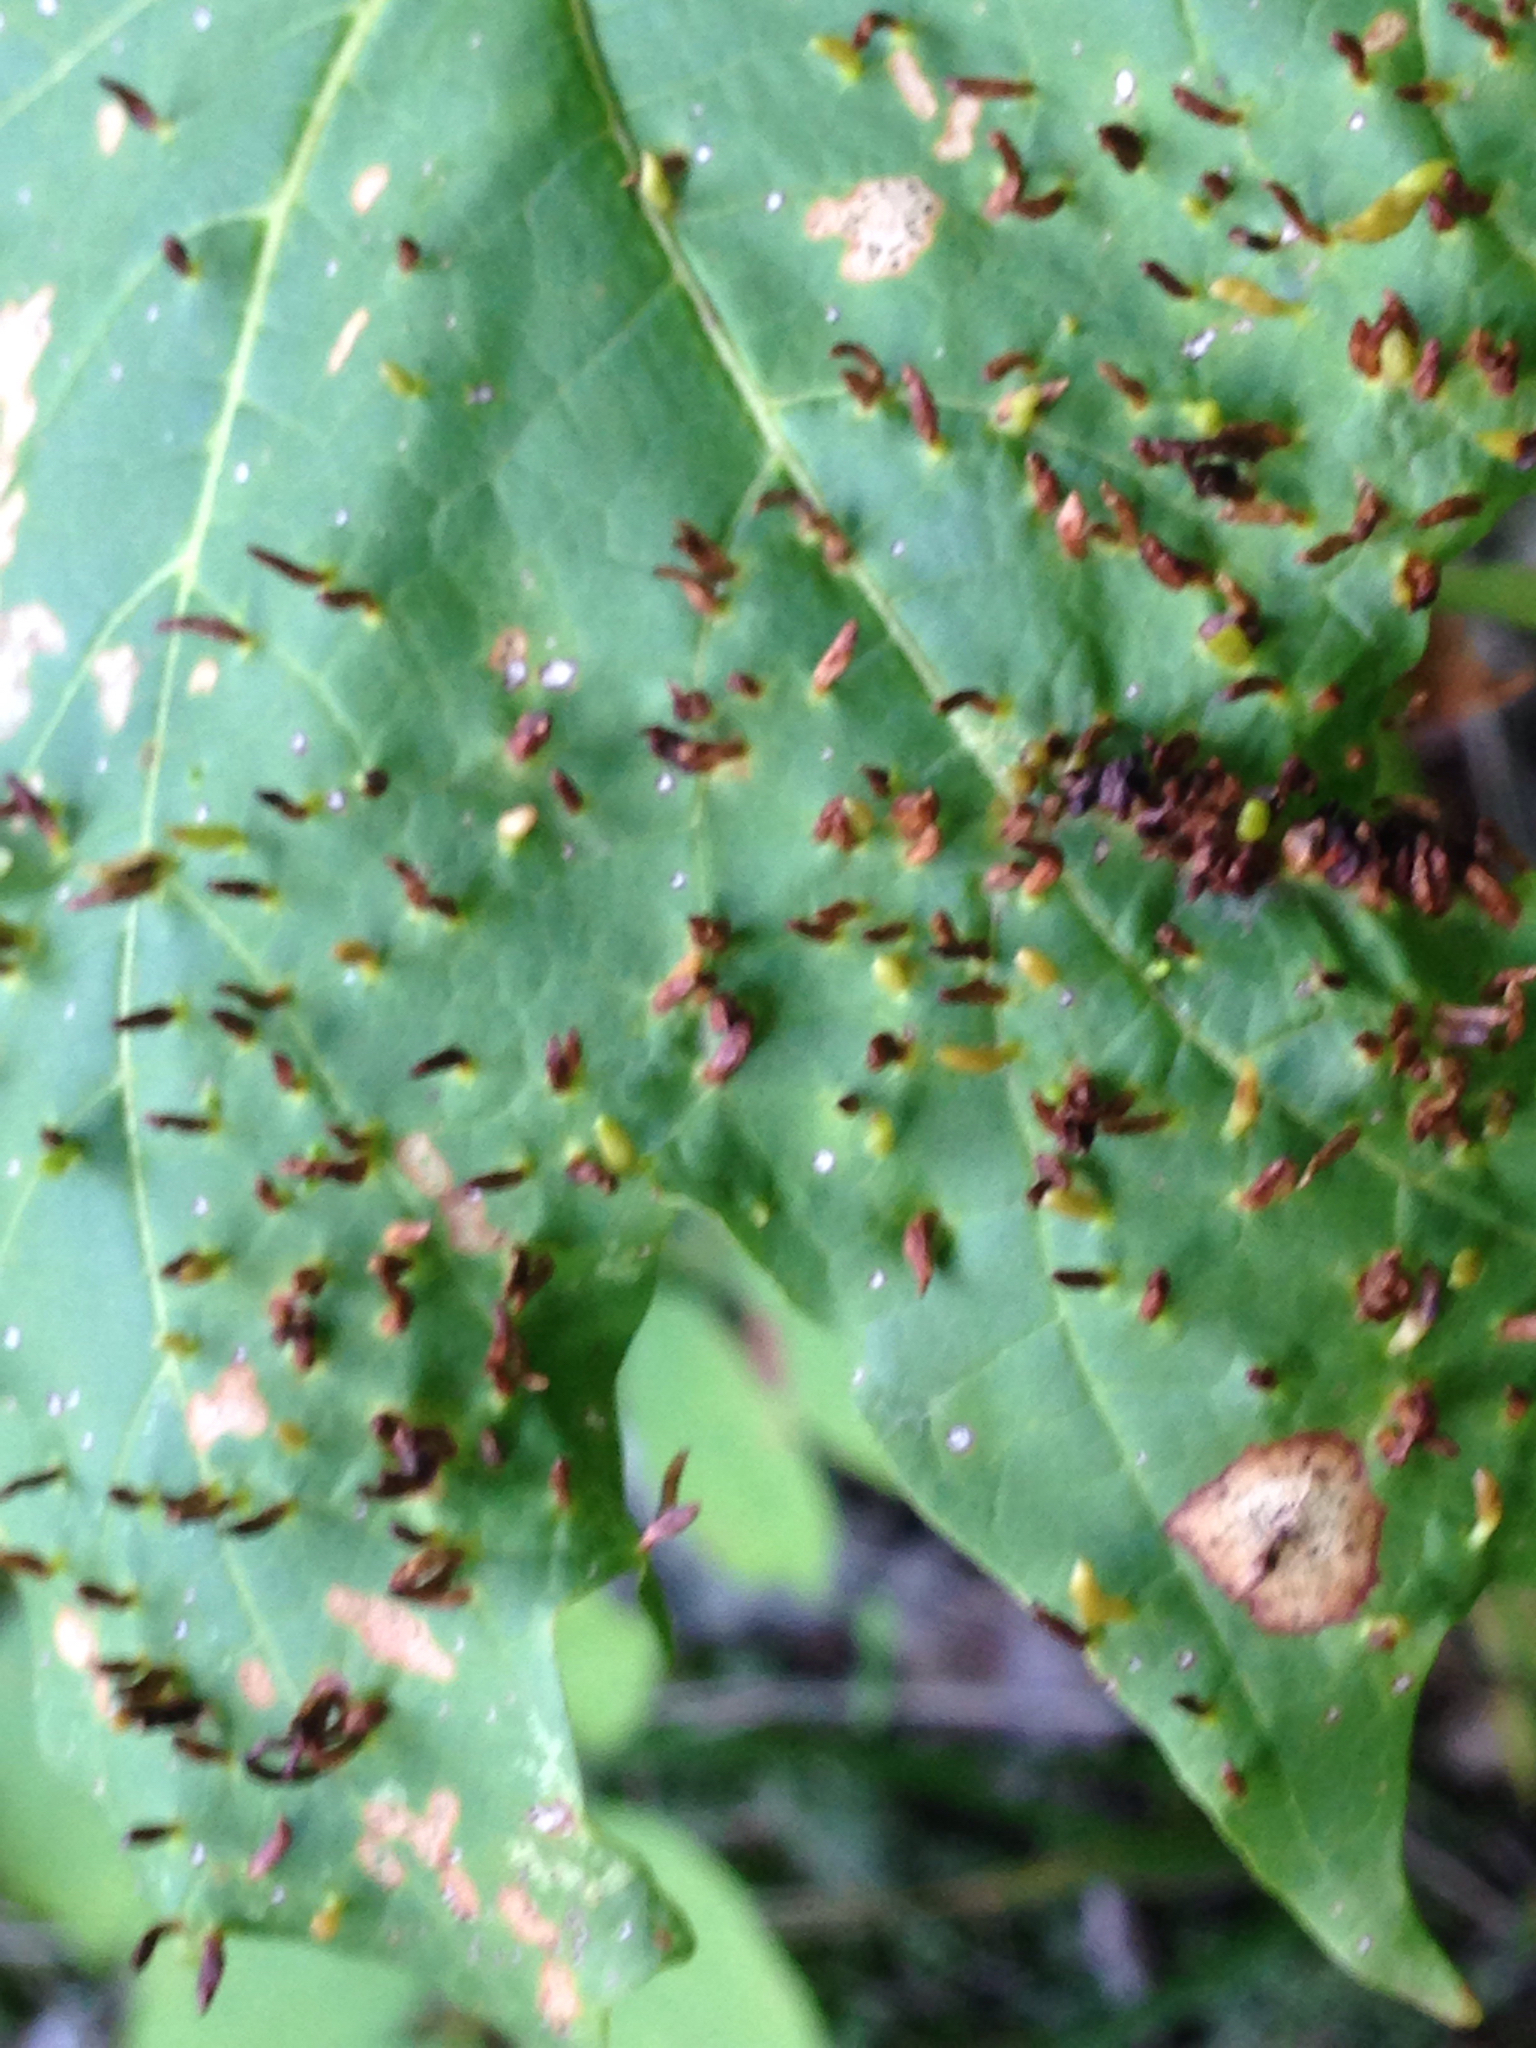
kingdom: Animalia
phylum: Arthropoda
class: Arachnida
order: Trombidiformes
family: Eriophyidae
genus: Vasates
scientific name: Vasates aceriscrumena
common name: Maple spindle gall mite
